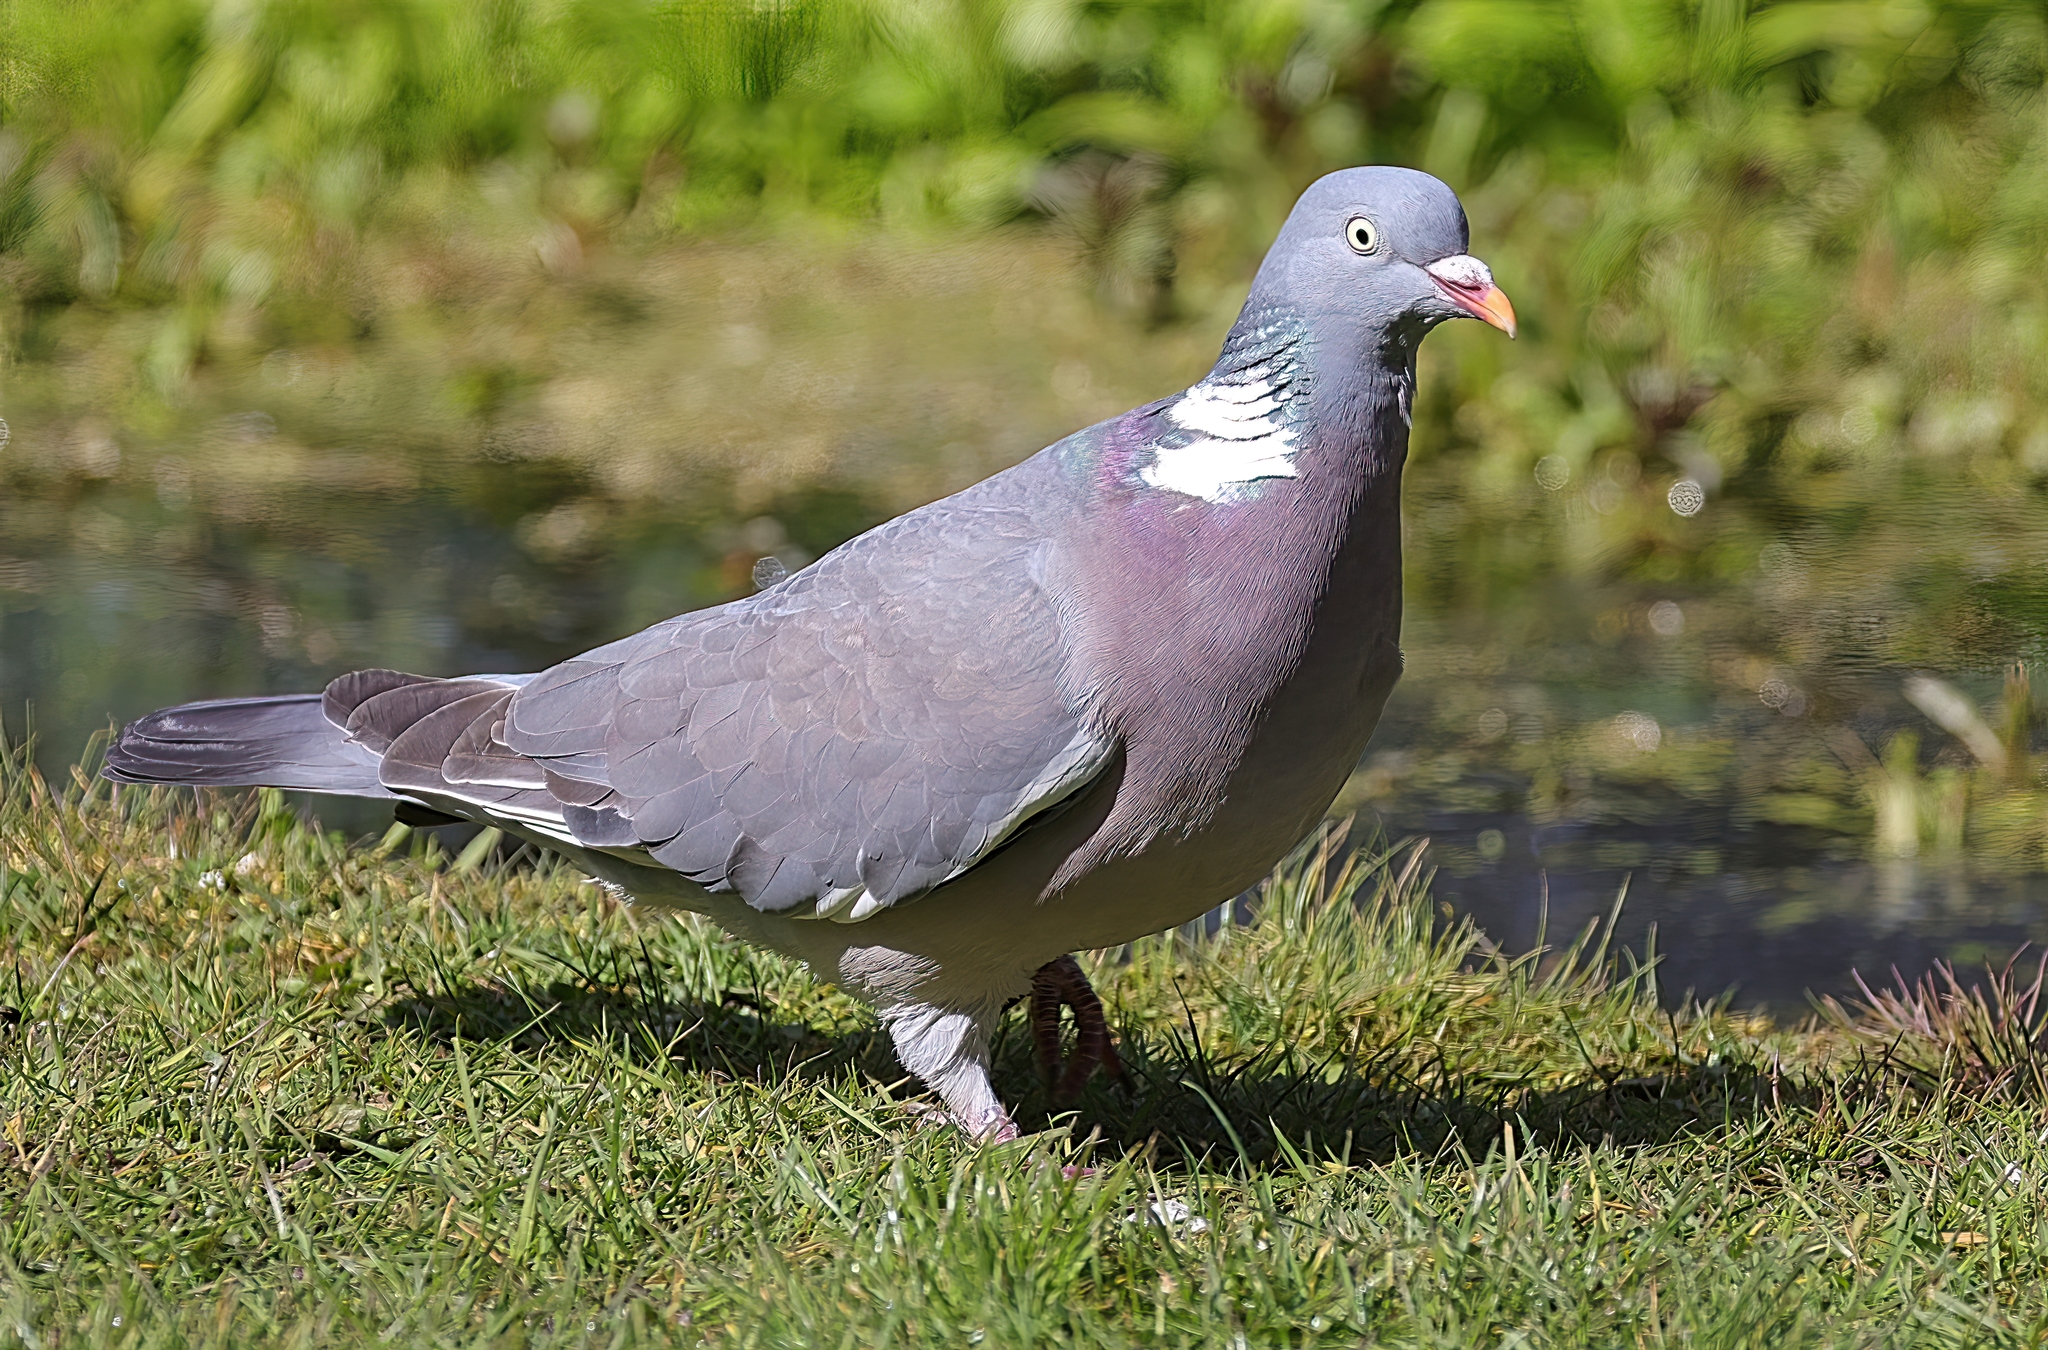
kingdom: Animalia
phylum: Chordata
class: Aves
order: Columbiformes
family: Columbidae
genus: Columba
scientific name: Columba palumbus
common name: Common wood pigeon
